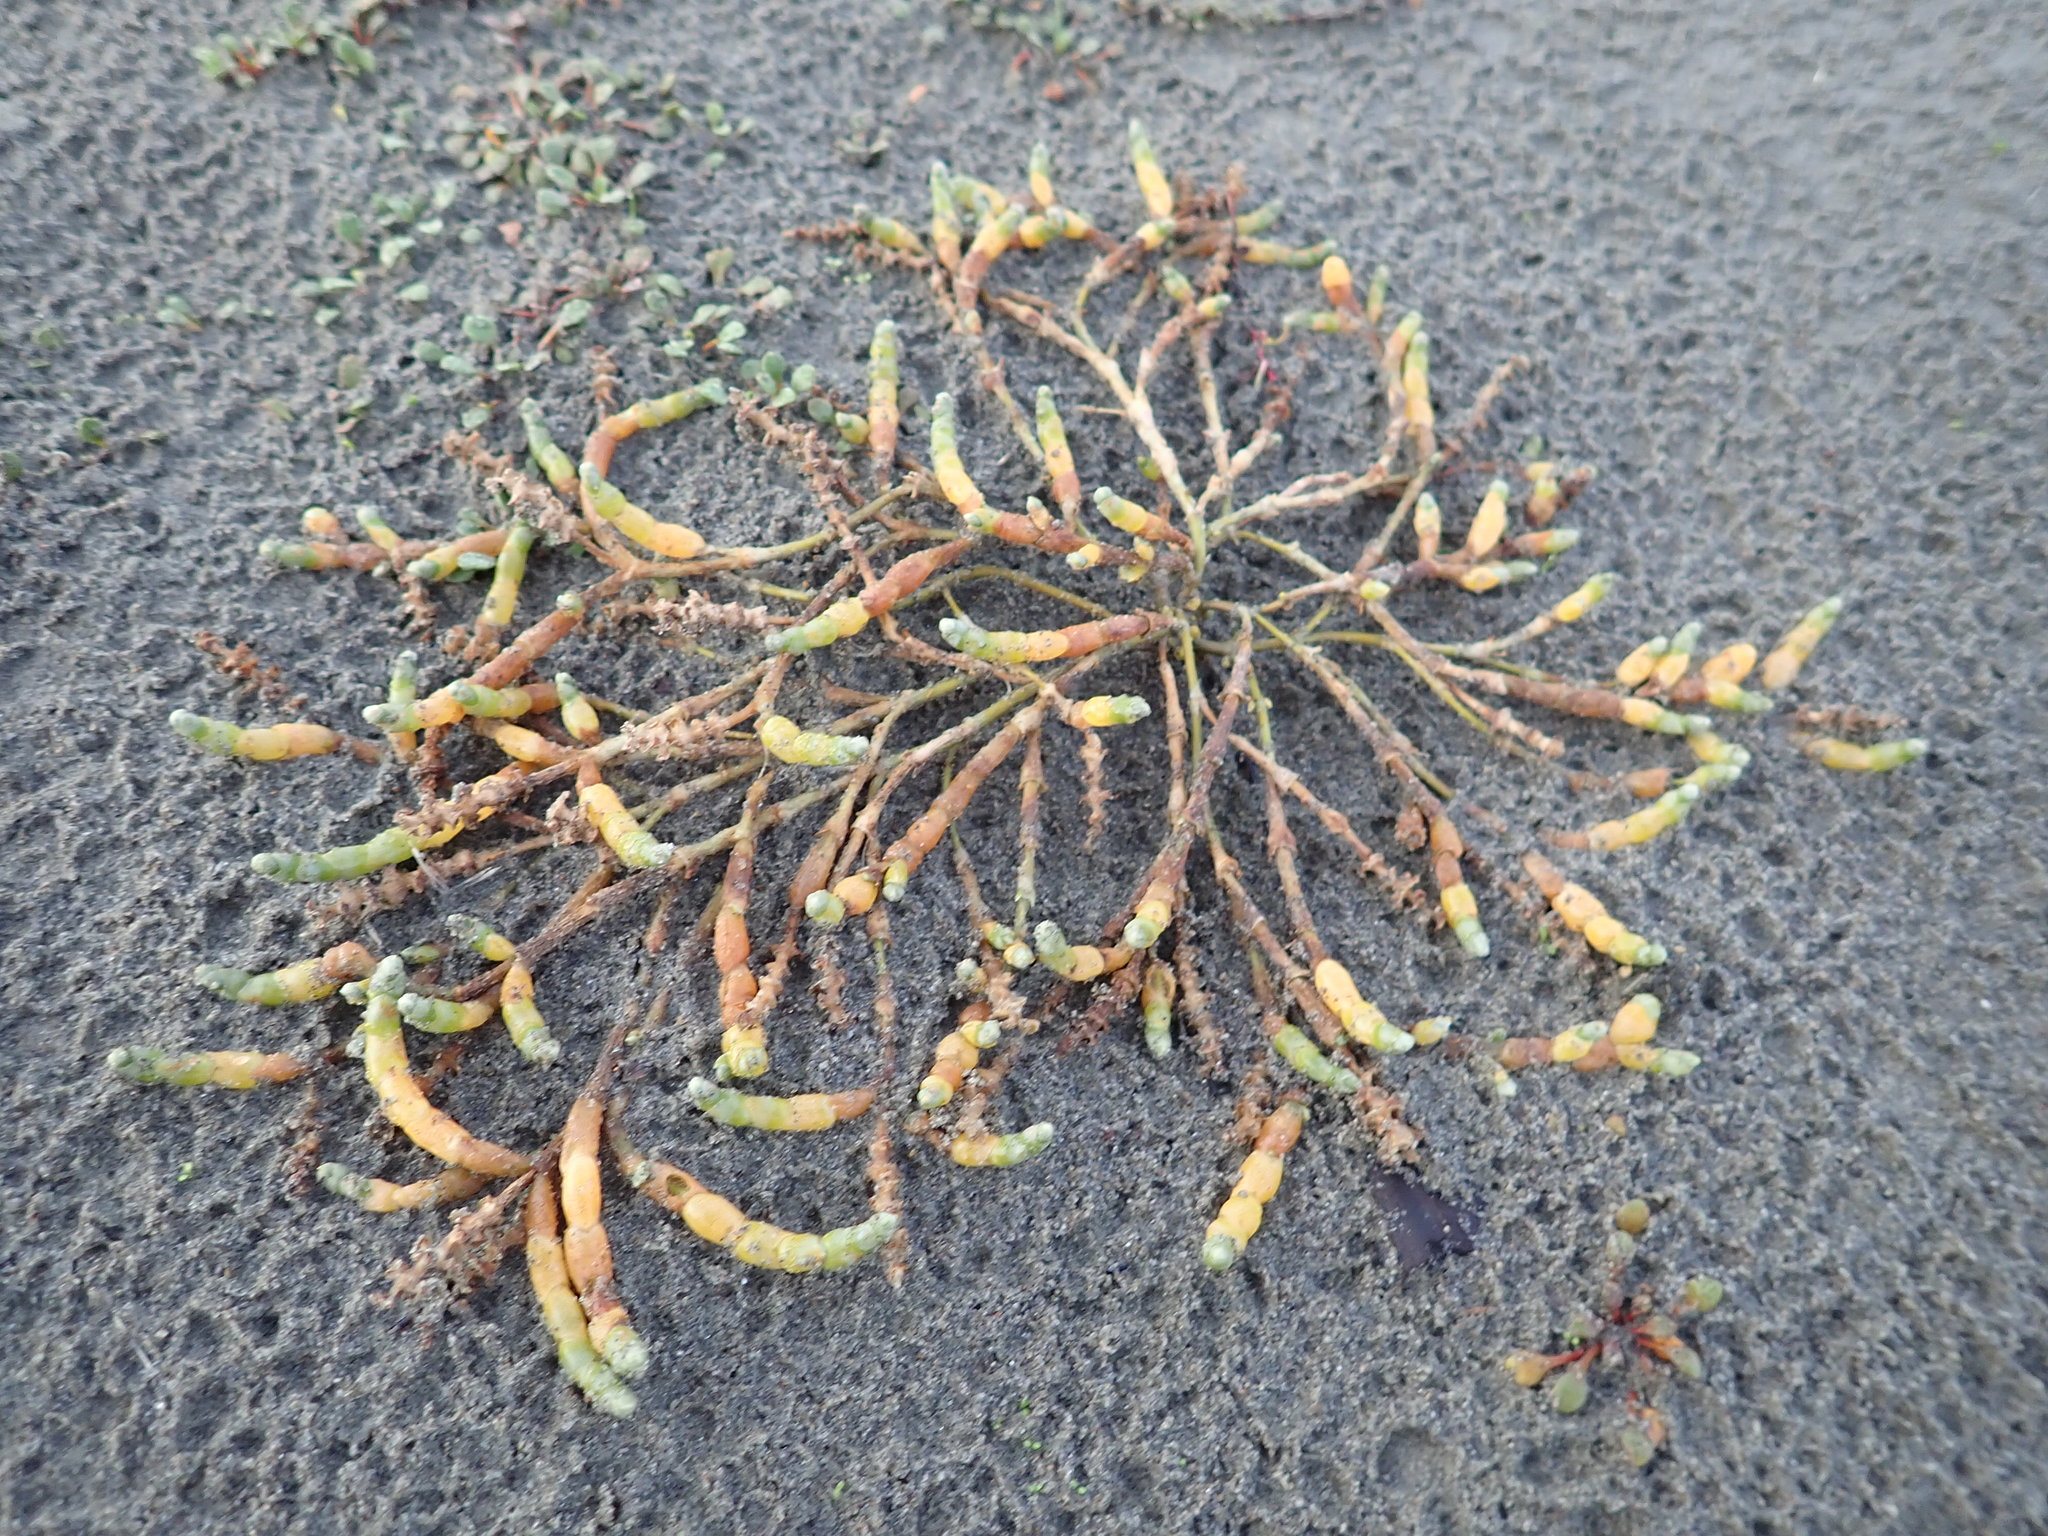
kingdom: Plantae
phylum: Tracheophyta
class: Magnoliopsida
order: Caryophyllales
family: Amaranthaceae
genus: Salicornia
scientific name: Salicornia quinqueflora
